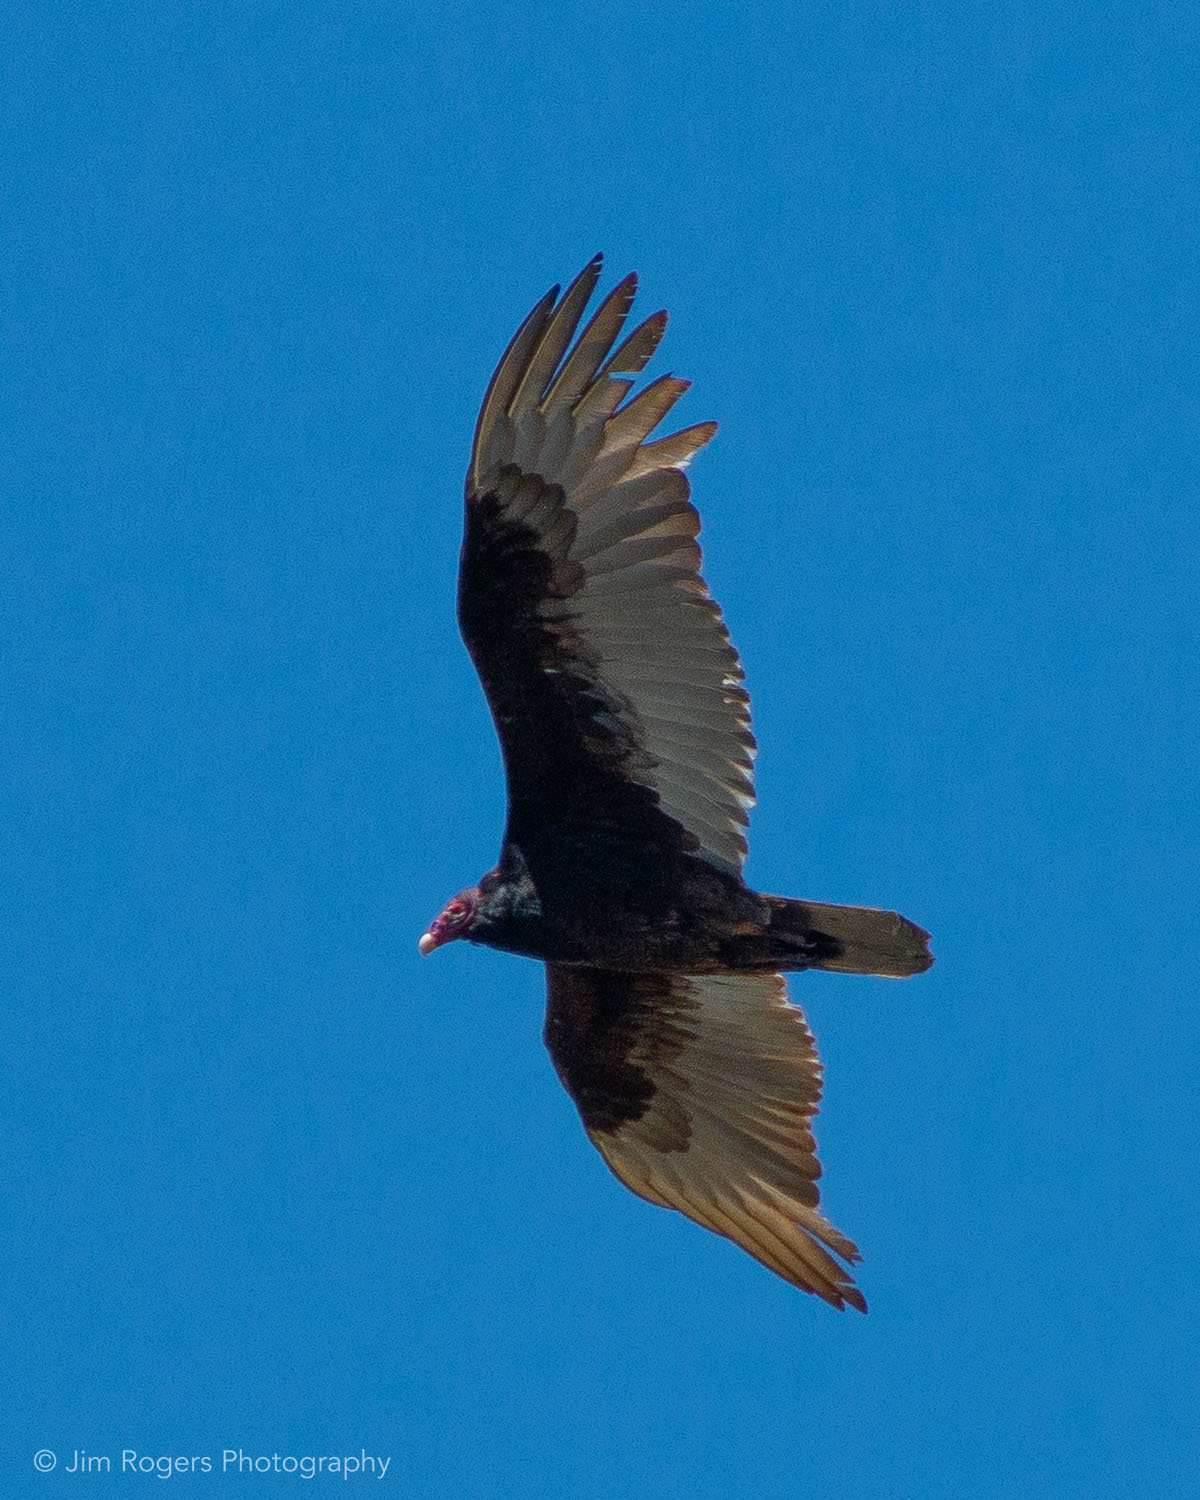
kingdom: Animalia
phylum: Chordata
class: Aves
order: Accipitriformes
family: Cathartidae
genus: Cathartes
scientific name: Cathartes aura
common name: Turkey vulture
